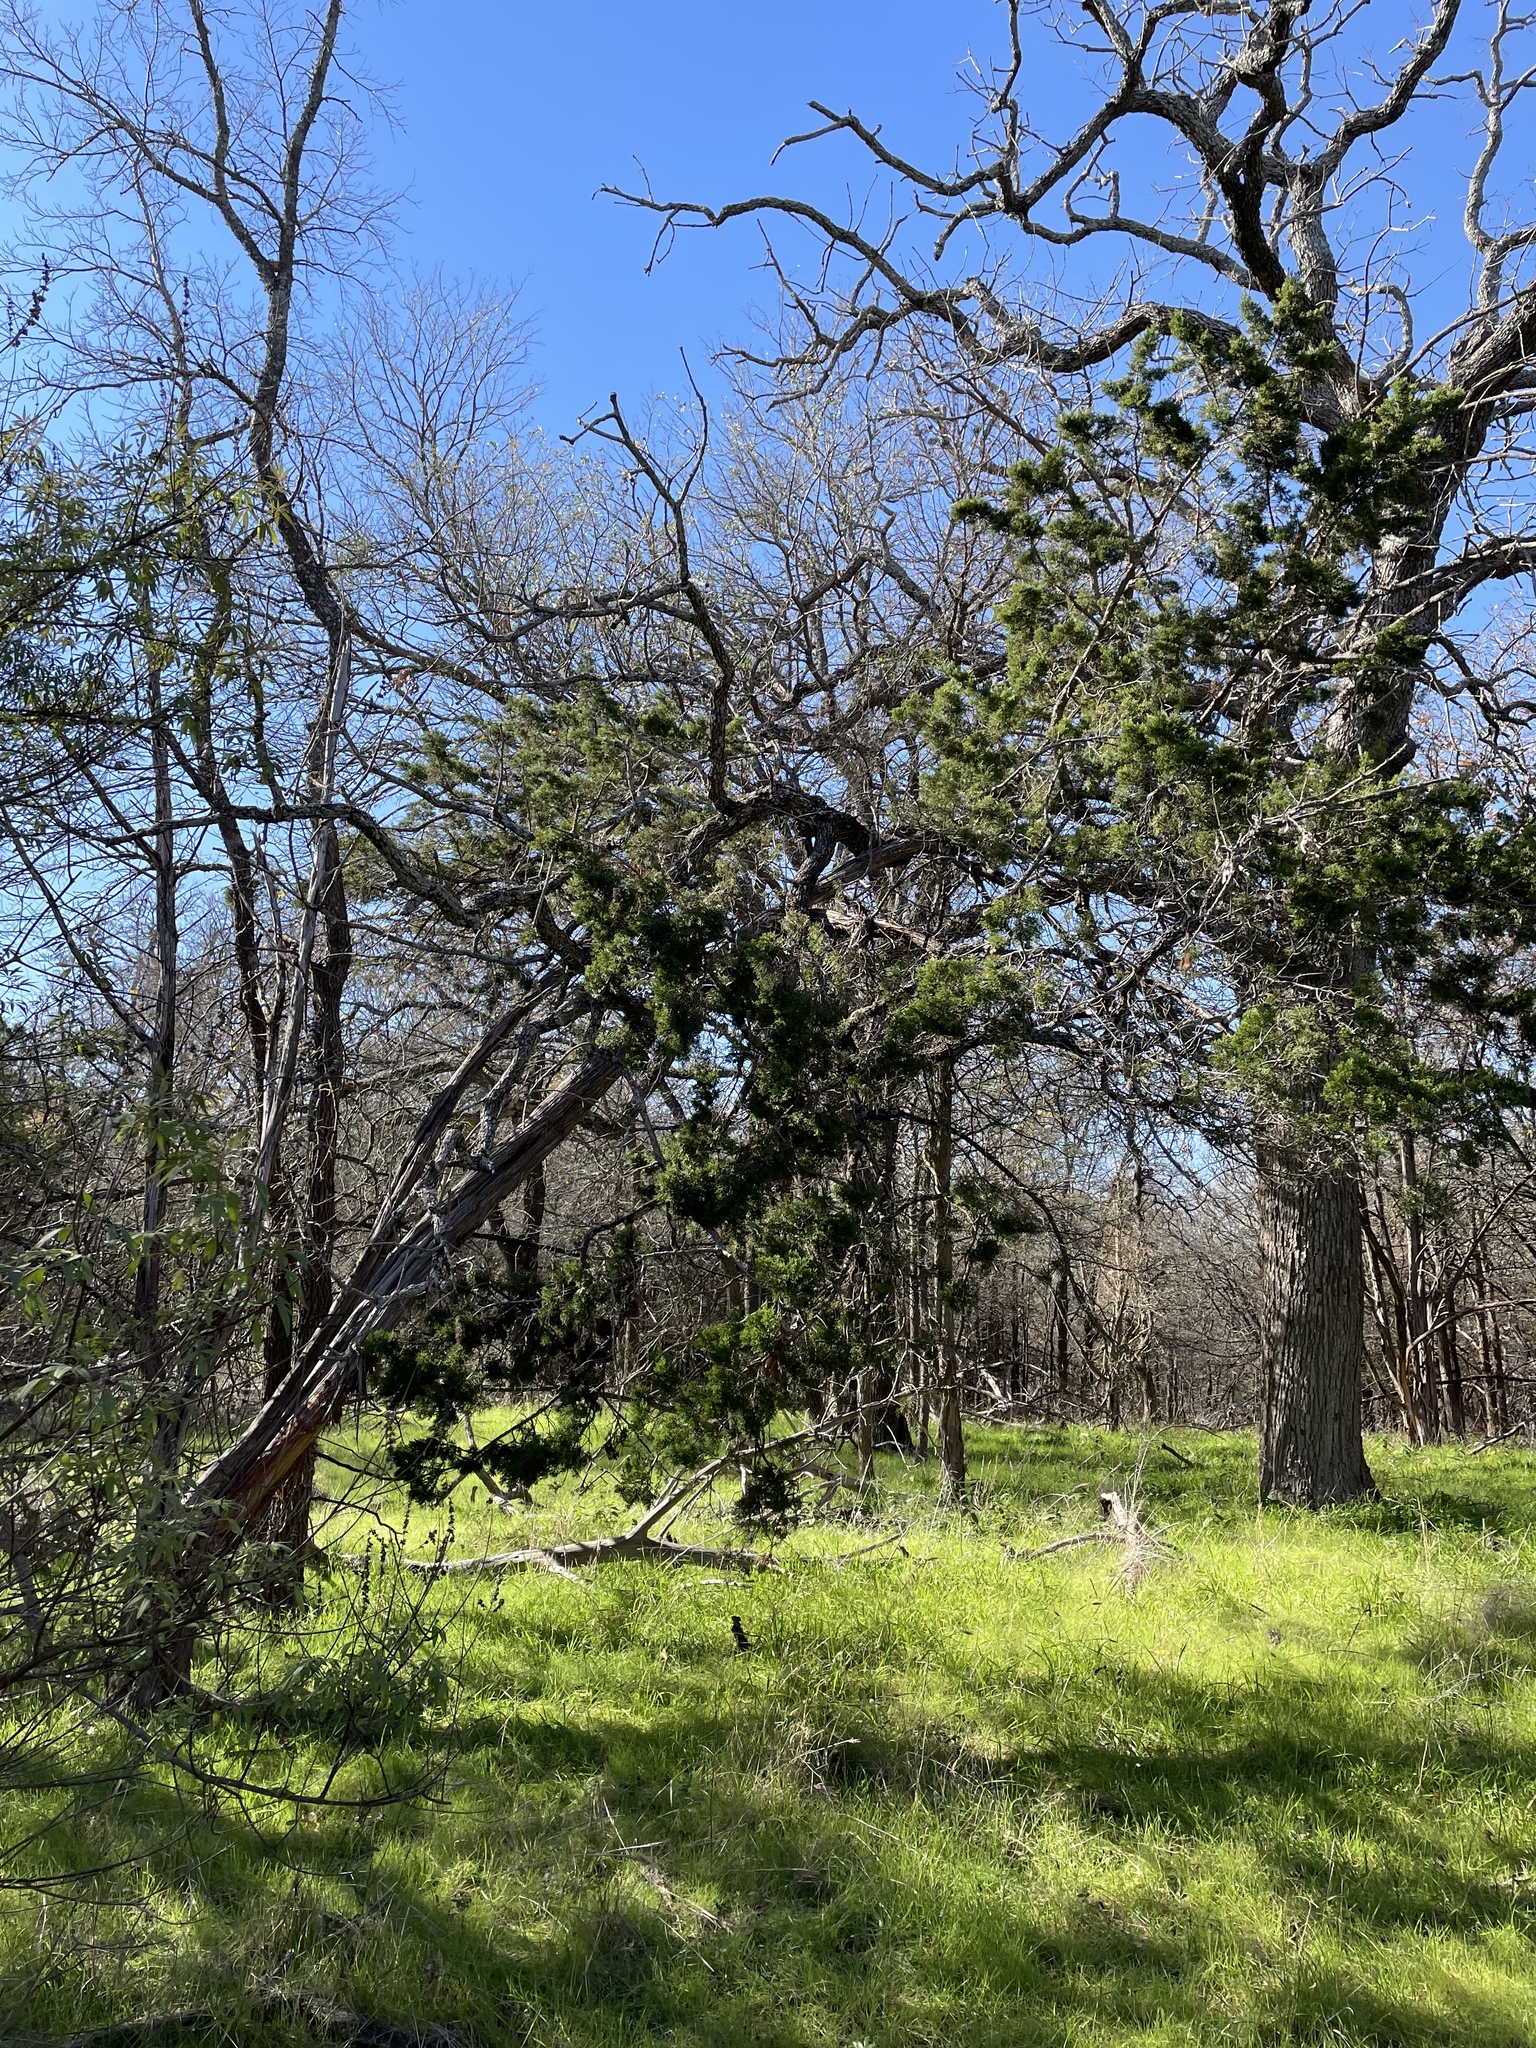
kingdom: Plantae
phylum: Tracheophyta
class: Pinopsida
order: Pinales
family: Cupressaceae
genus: Juniperus
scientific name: Juniperus ashei
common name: Mexican juniper
